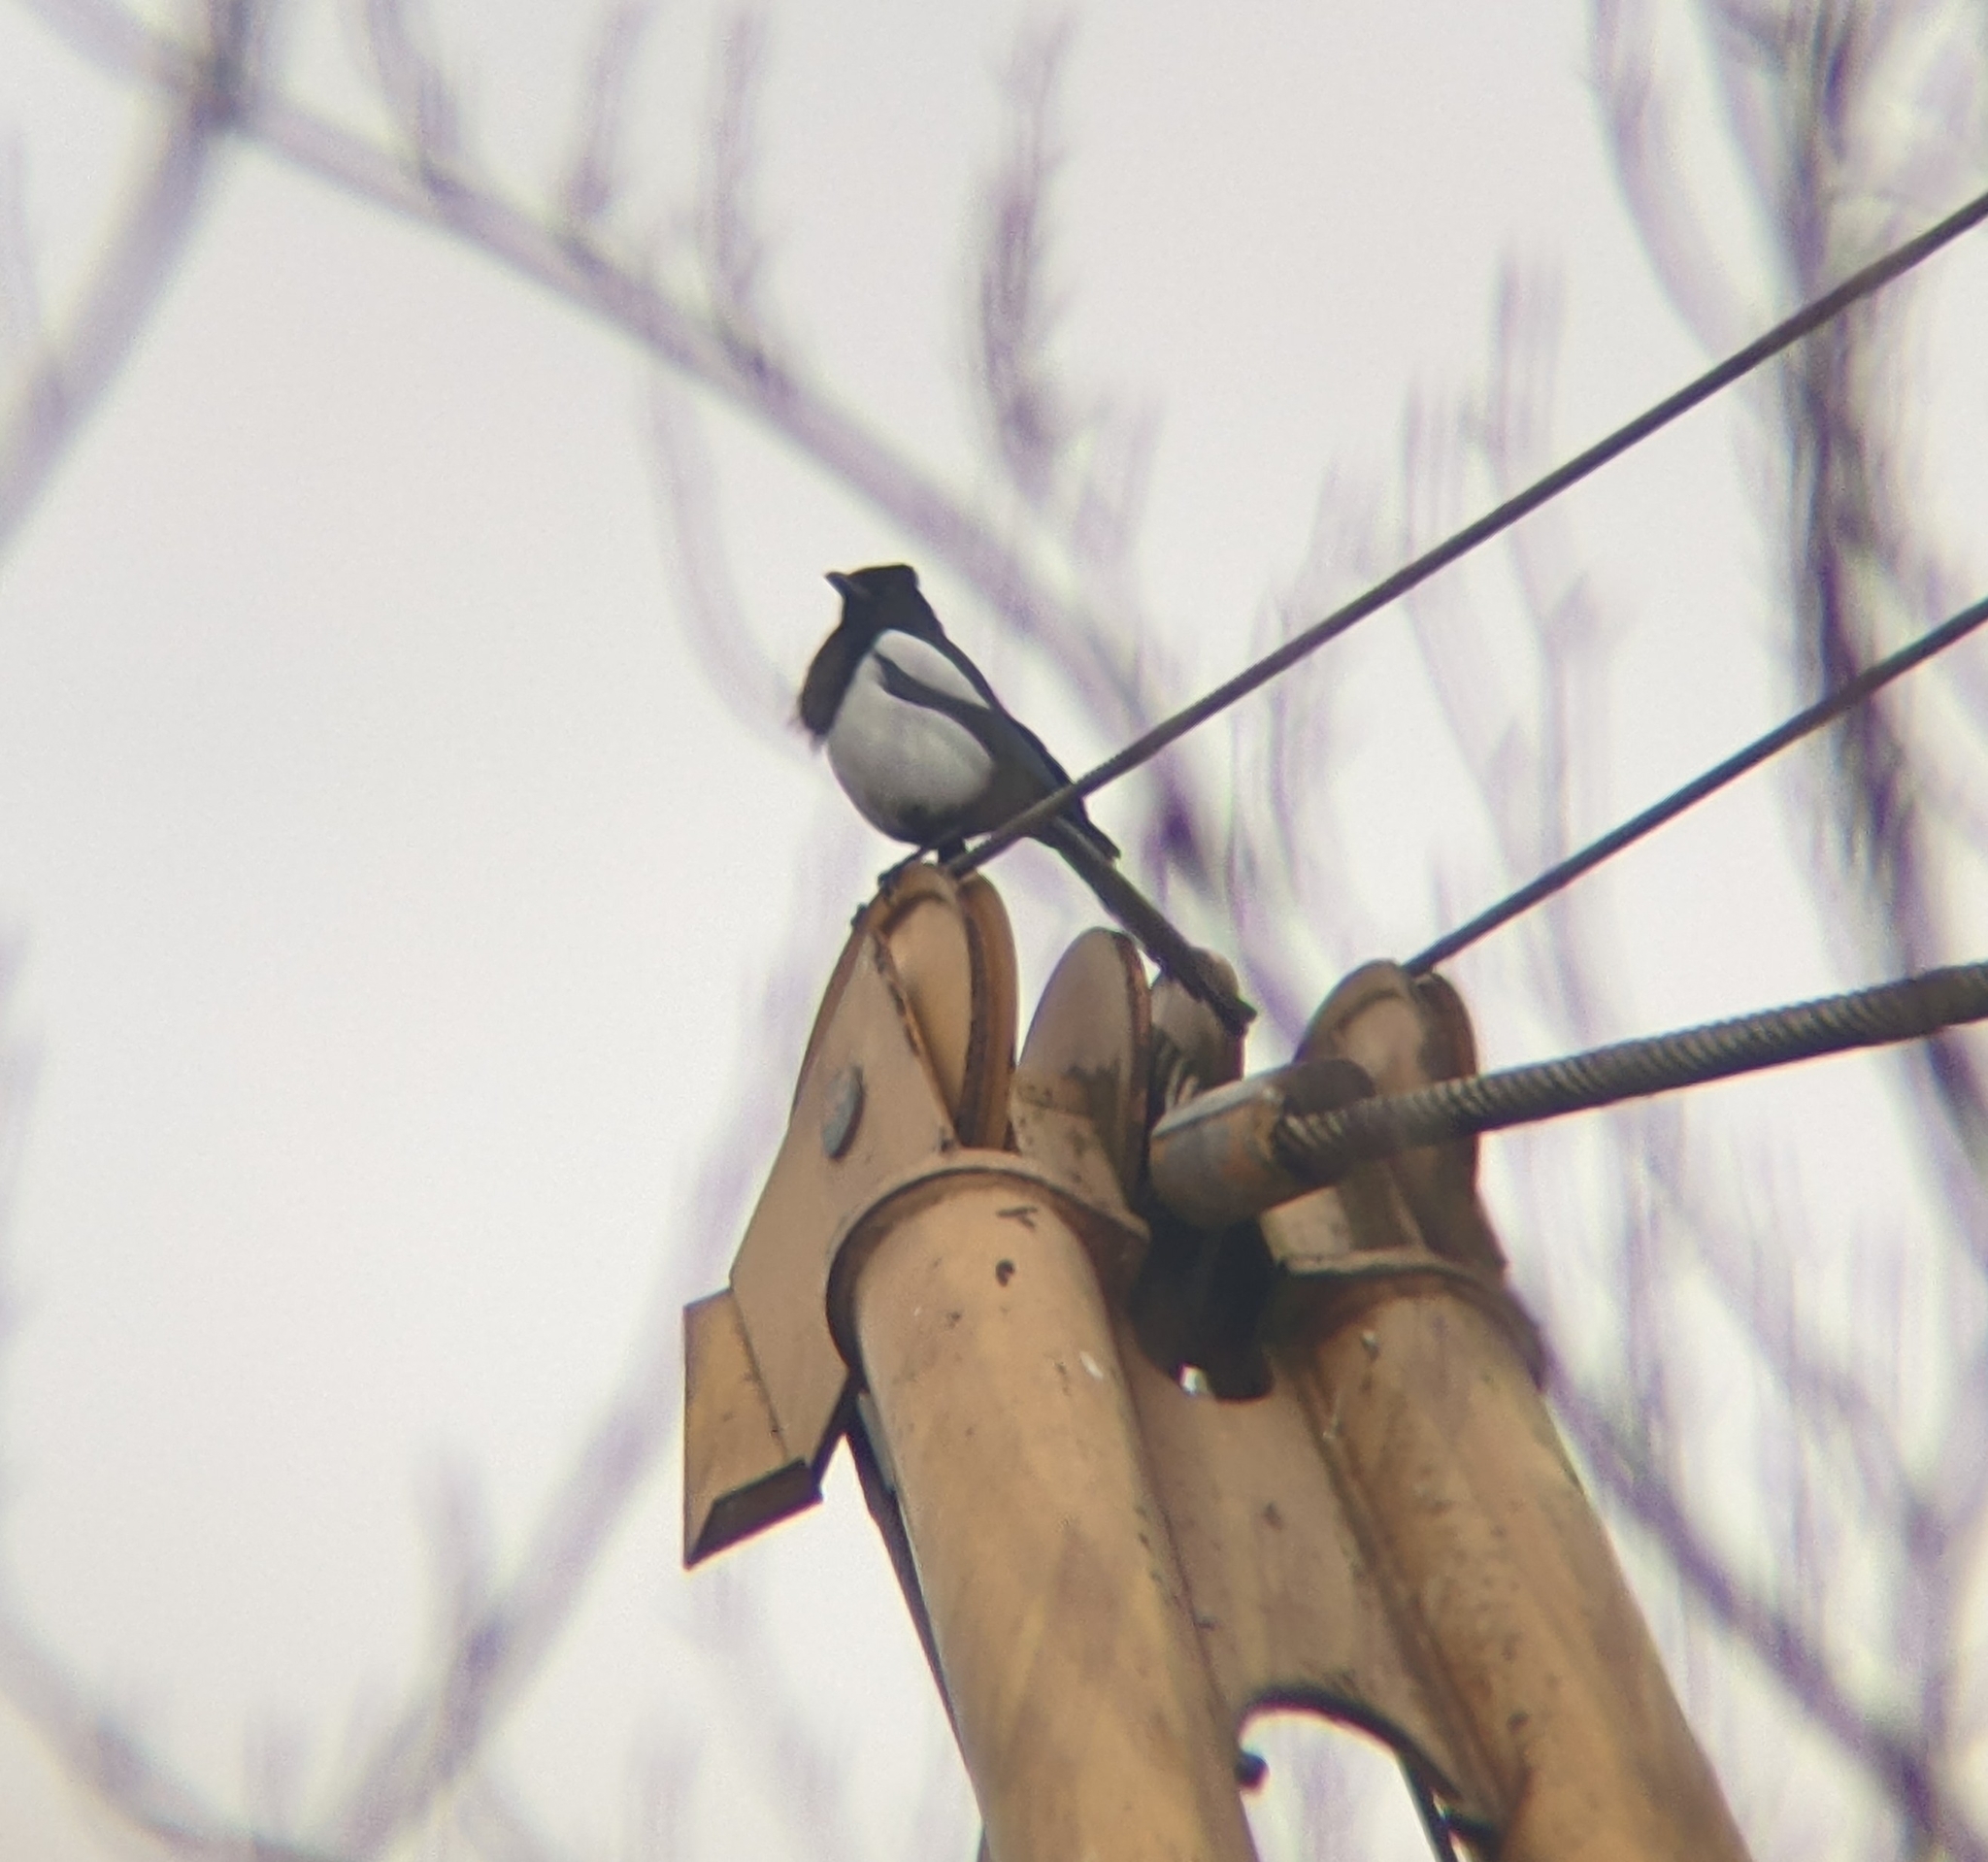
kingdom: Animalia
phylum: Chordata
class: Aves
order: Passeriformes
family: Corvidae
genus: Pica
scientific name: Pica pica
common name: Eurasian magpie
